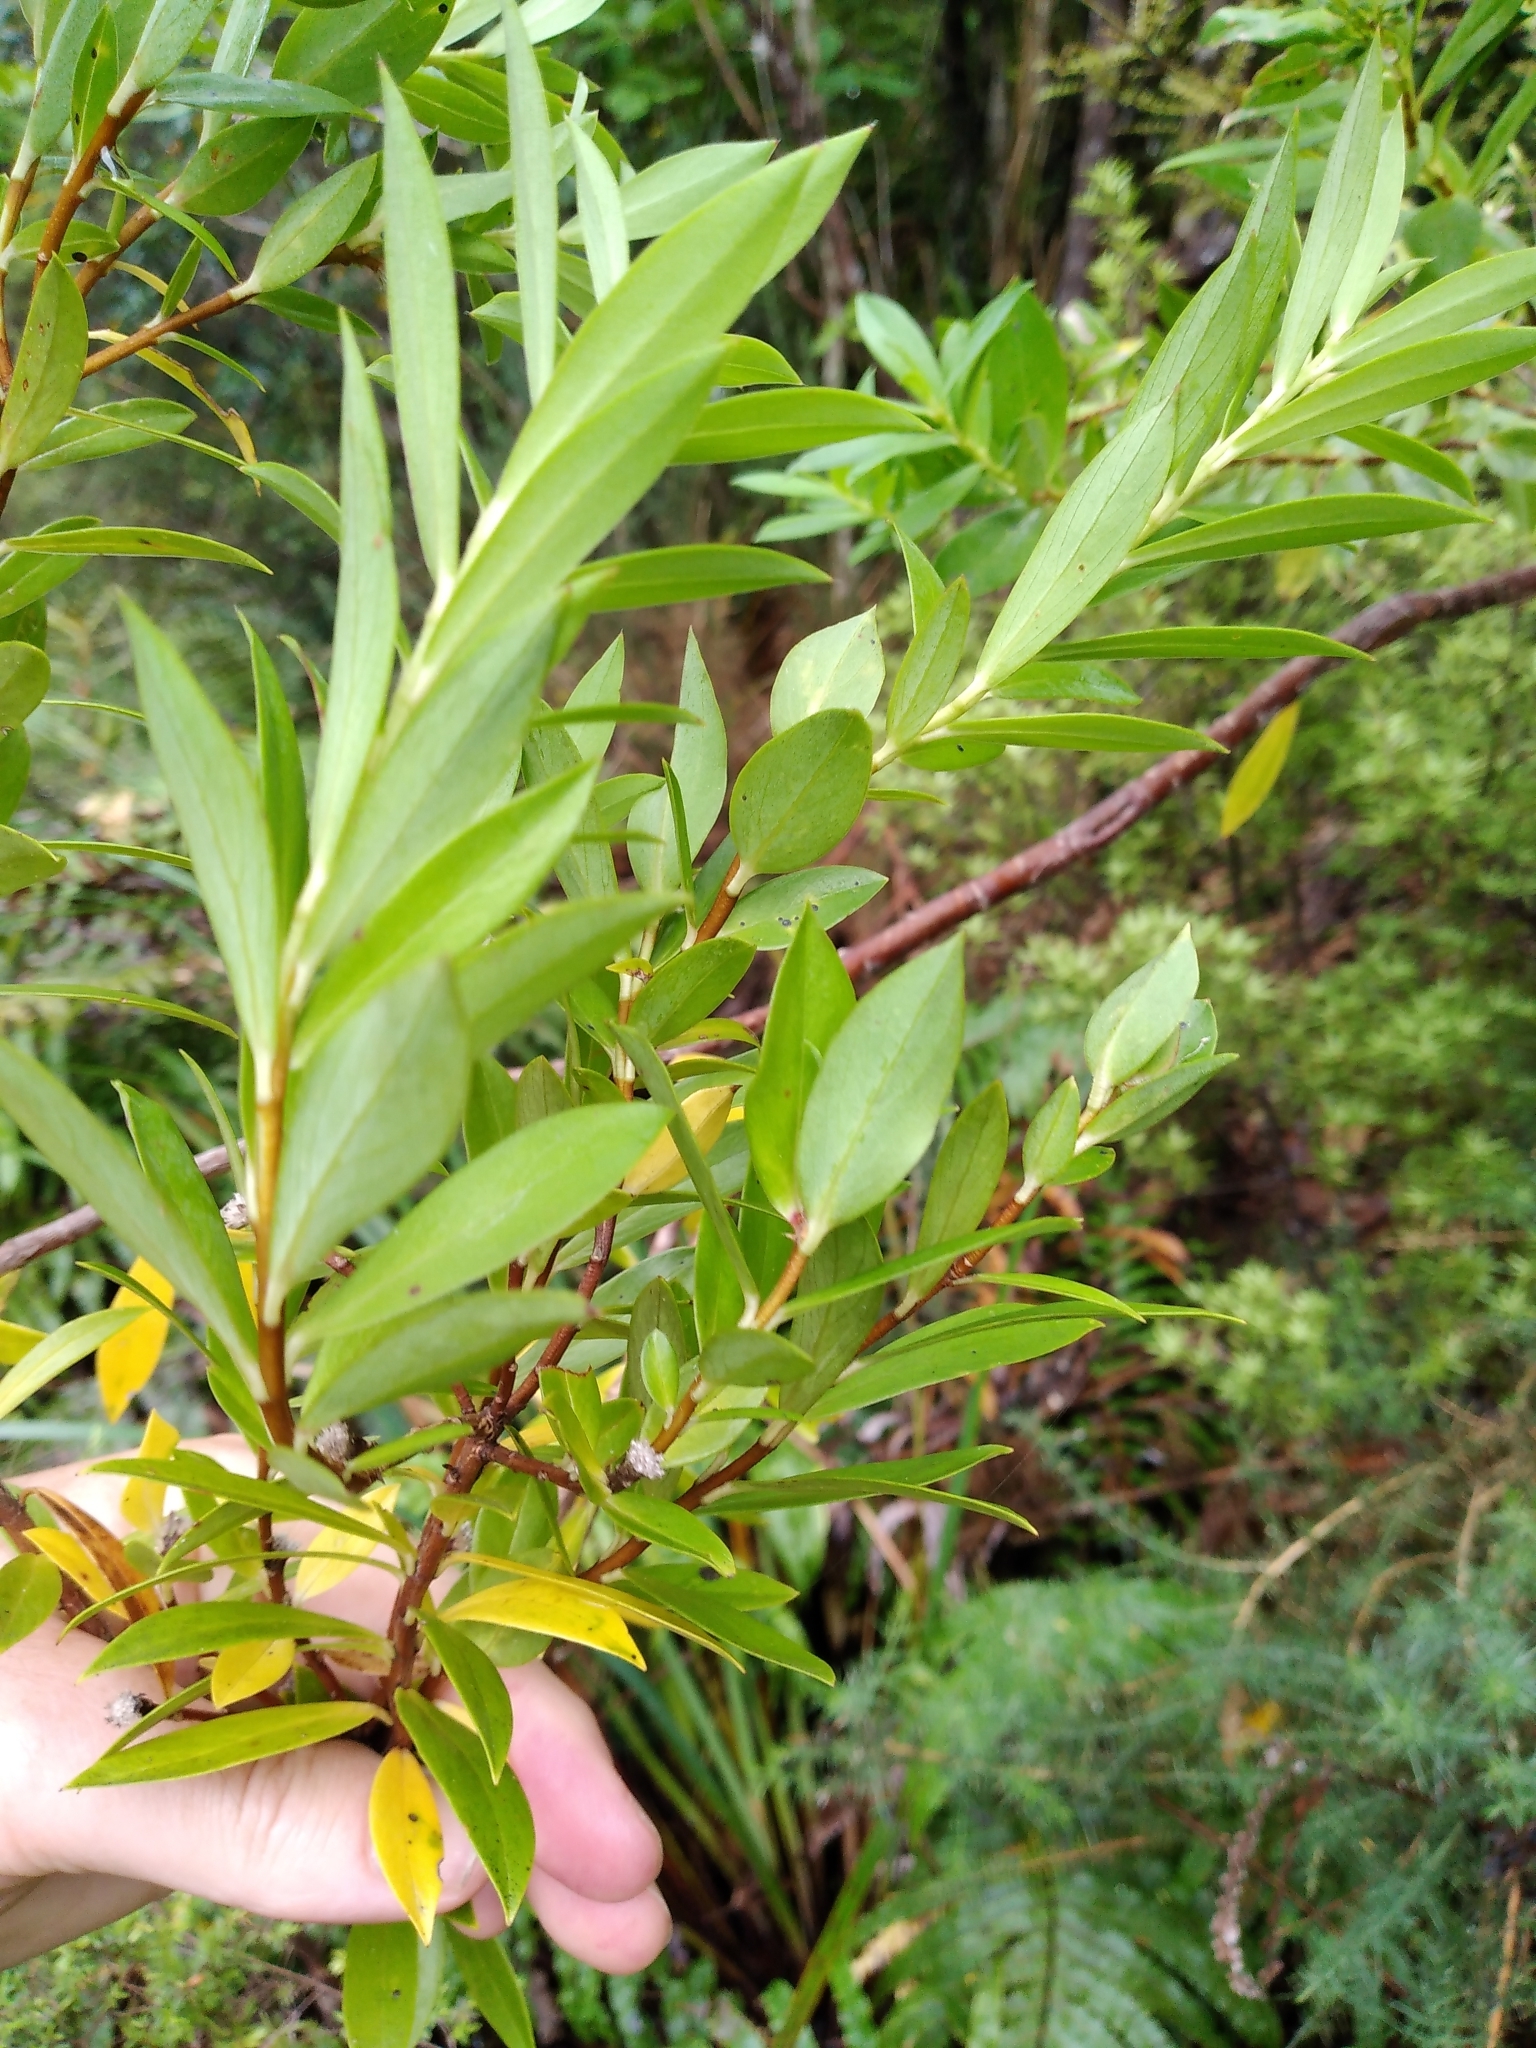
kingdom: Plantae
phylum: Tracheophyta
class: Magnoliopsida
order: Malvales
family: Thymelaeaceae
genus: Pimelea
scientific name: Pimelea longifolia
